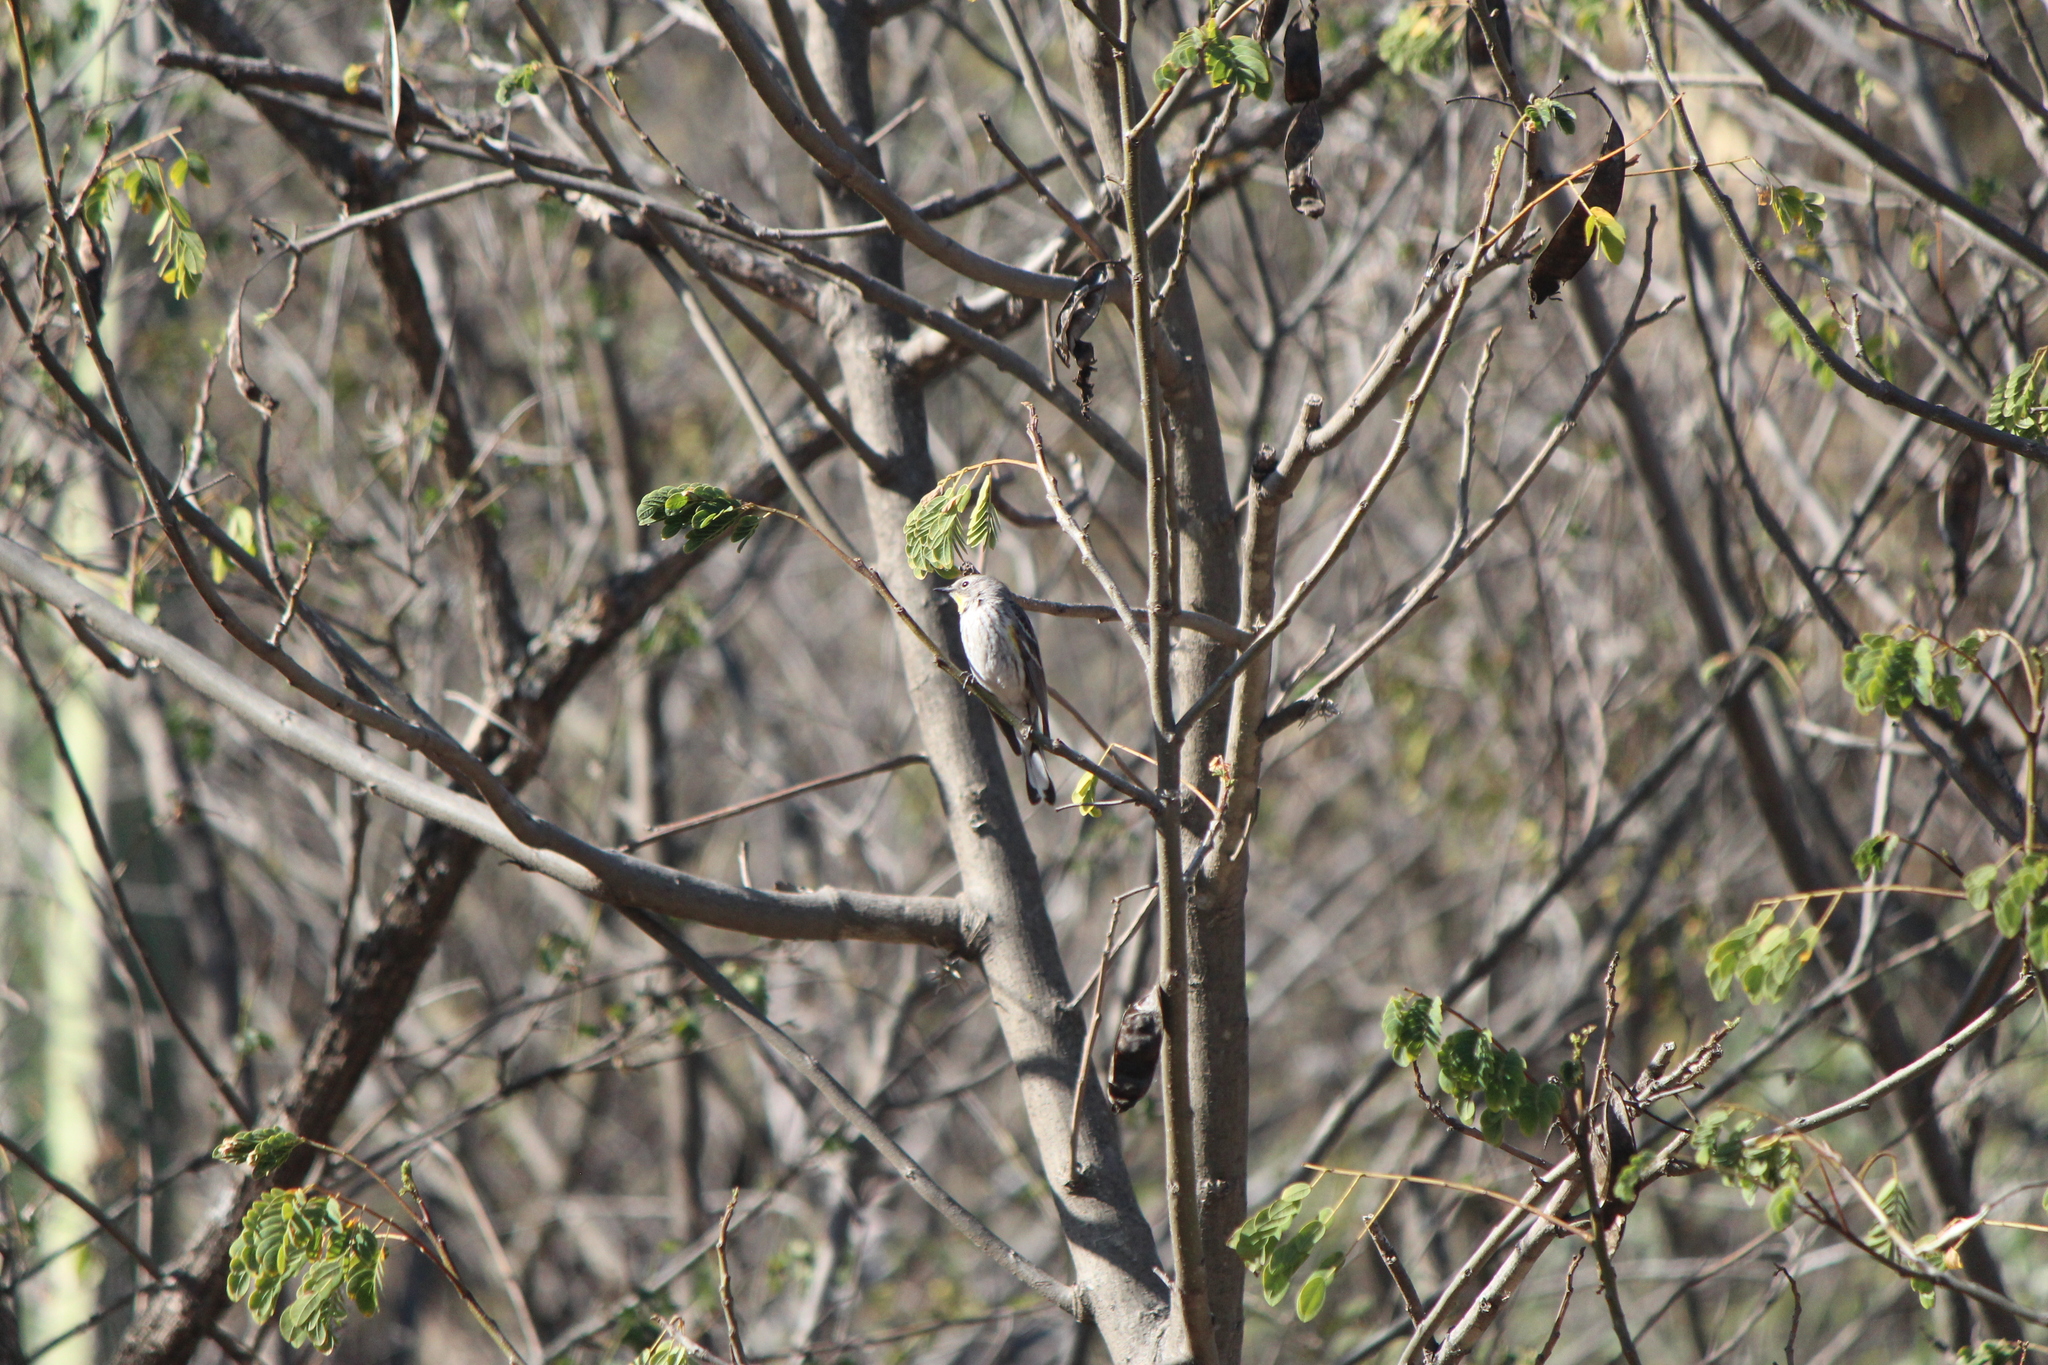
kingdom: Animalia
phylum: Chordata
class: Aves
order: Passeriformes
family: Parulidae
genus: Setophaga
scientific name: Setophaga coronata
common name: Myrtle warbler
